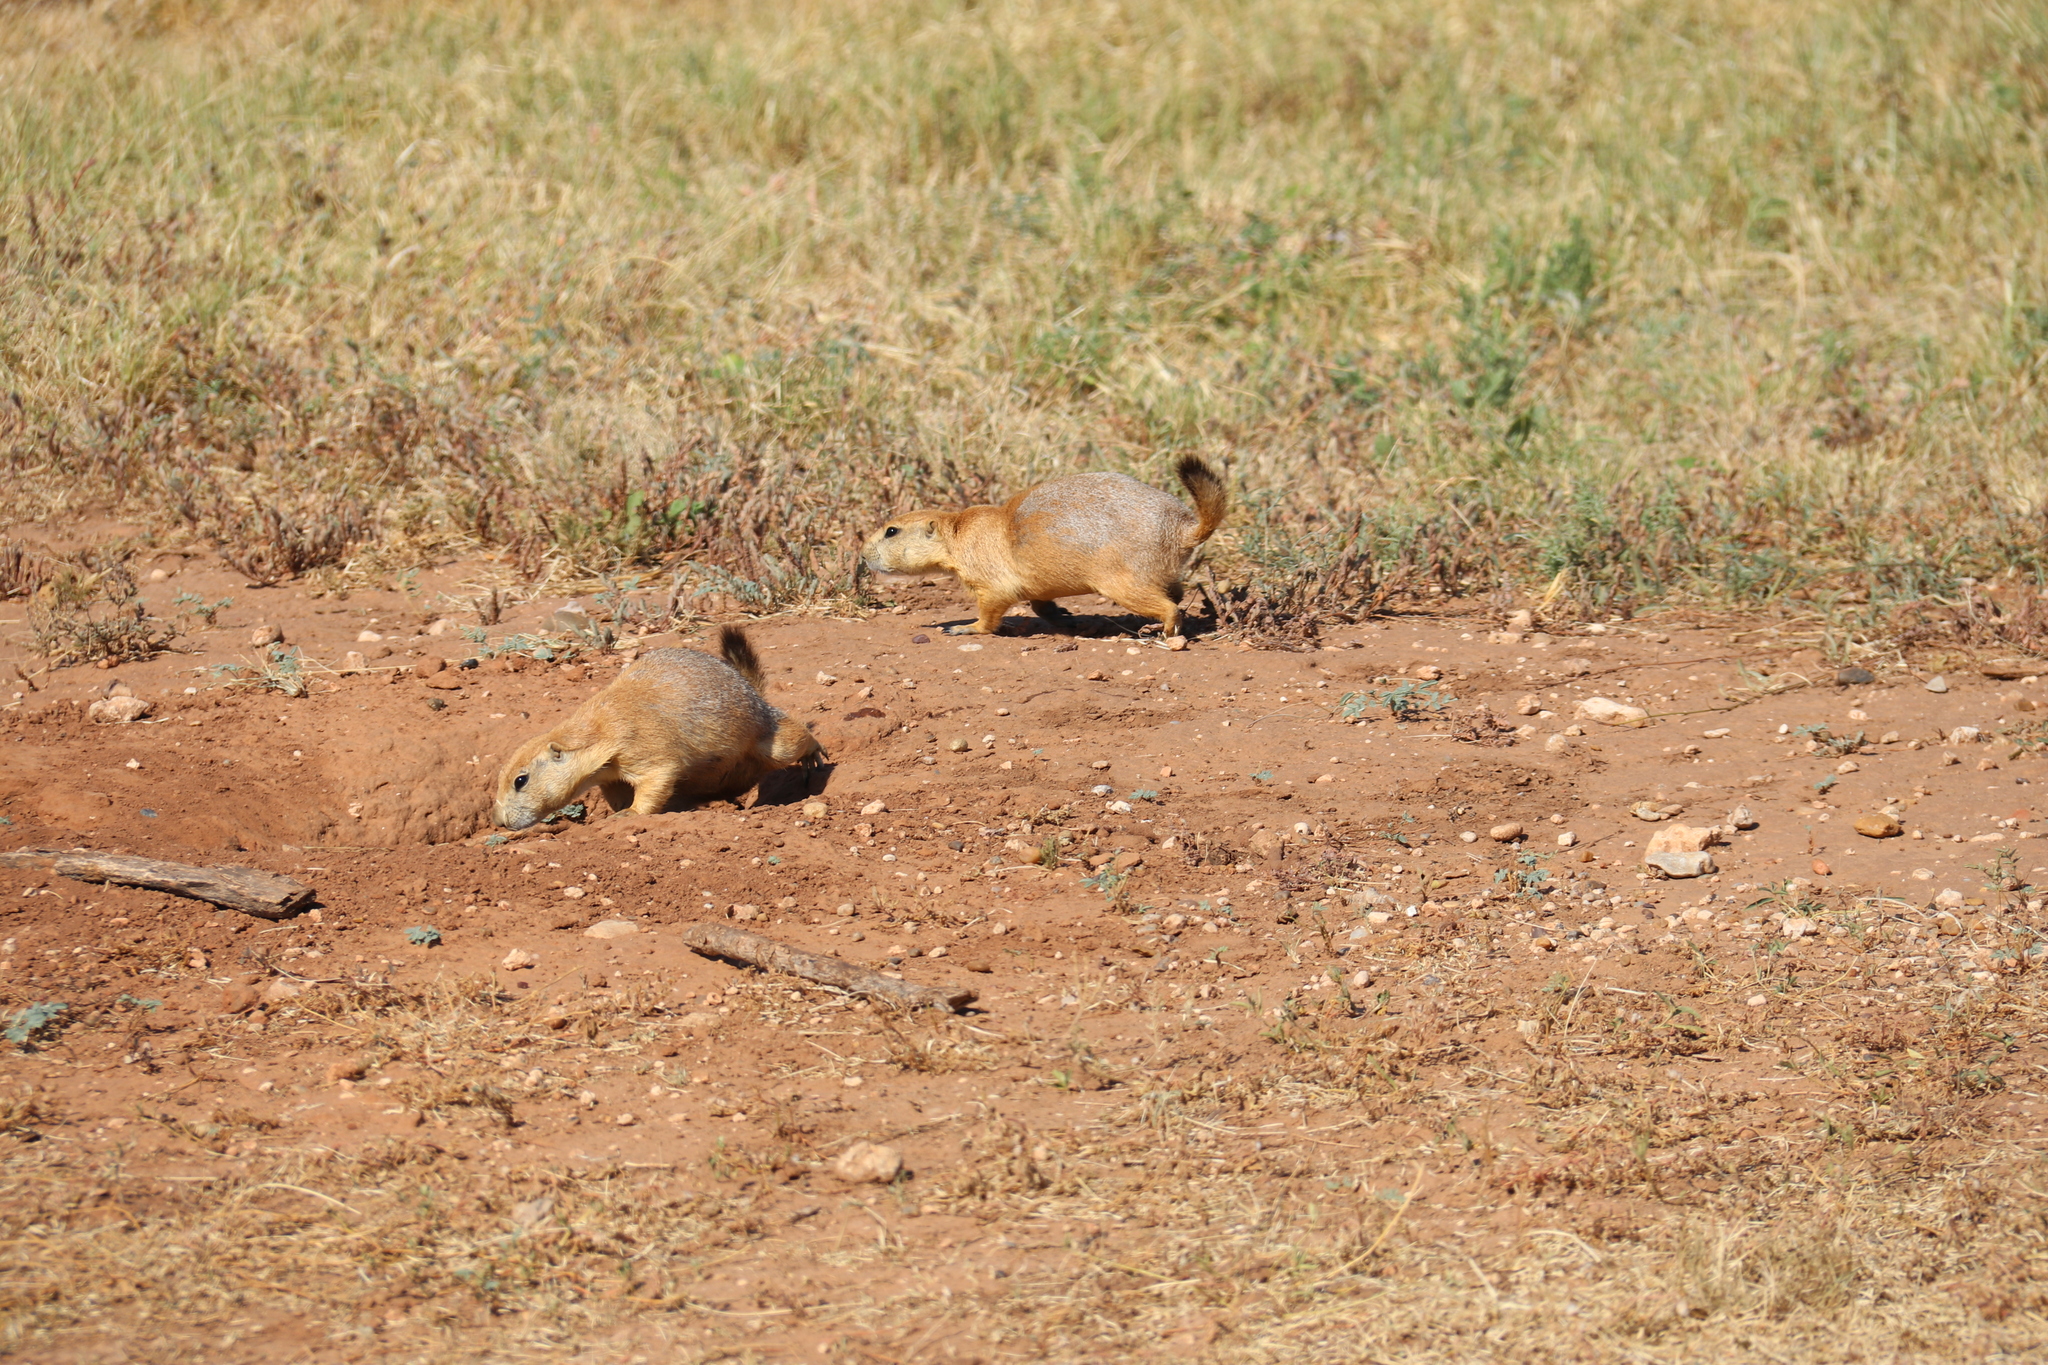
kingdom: Animalia
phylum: Chordata
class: Mammalia
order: Rodentia
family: Sciuridae
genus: Cynomys
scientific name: Cynomys ludovicianus
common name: Black-tailed prairie dog
